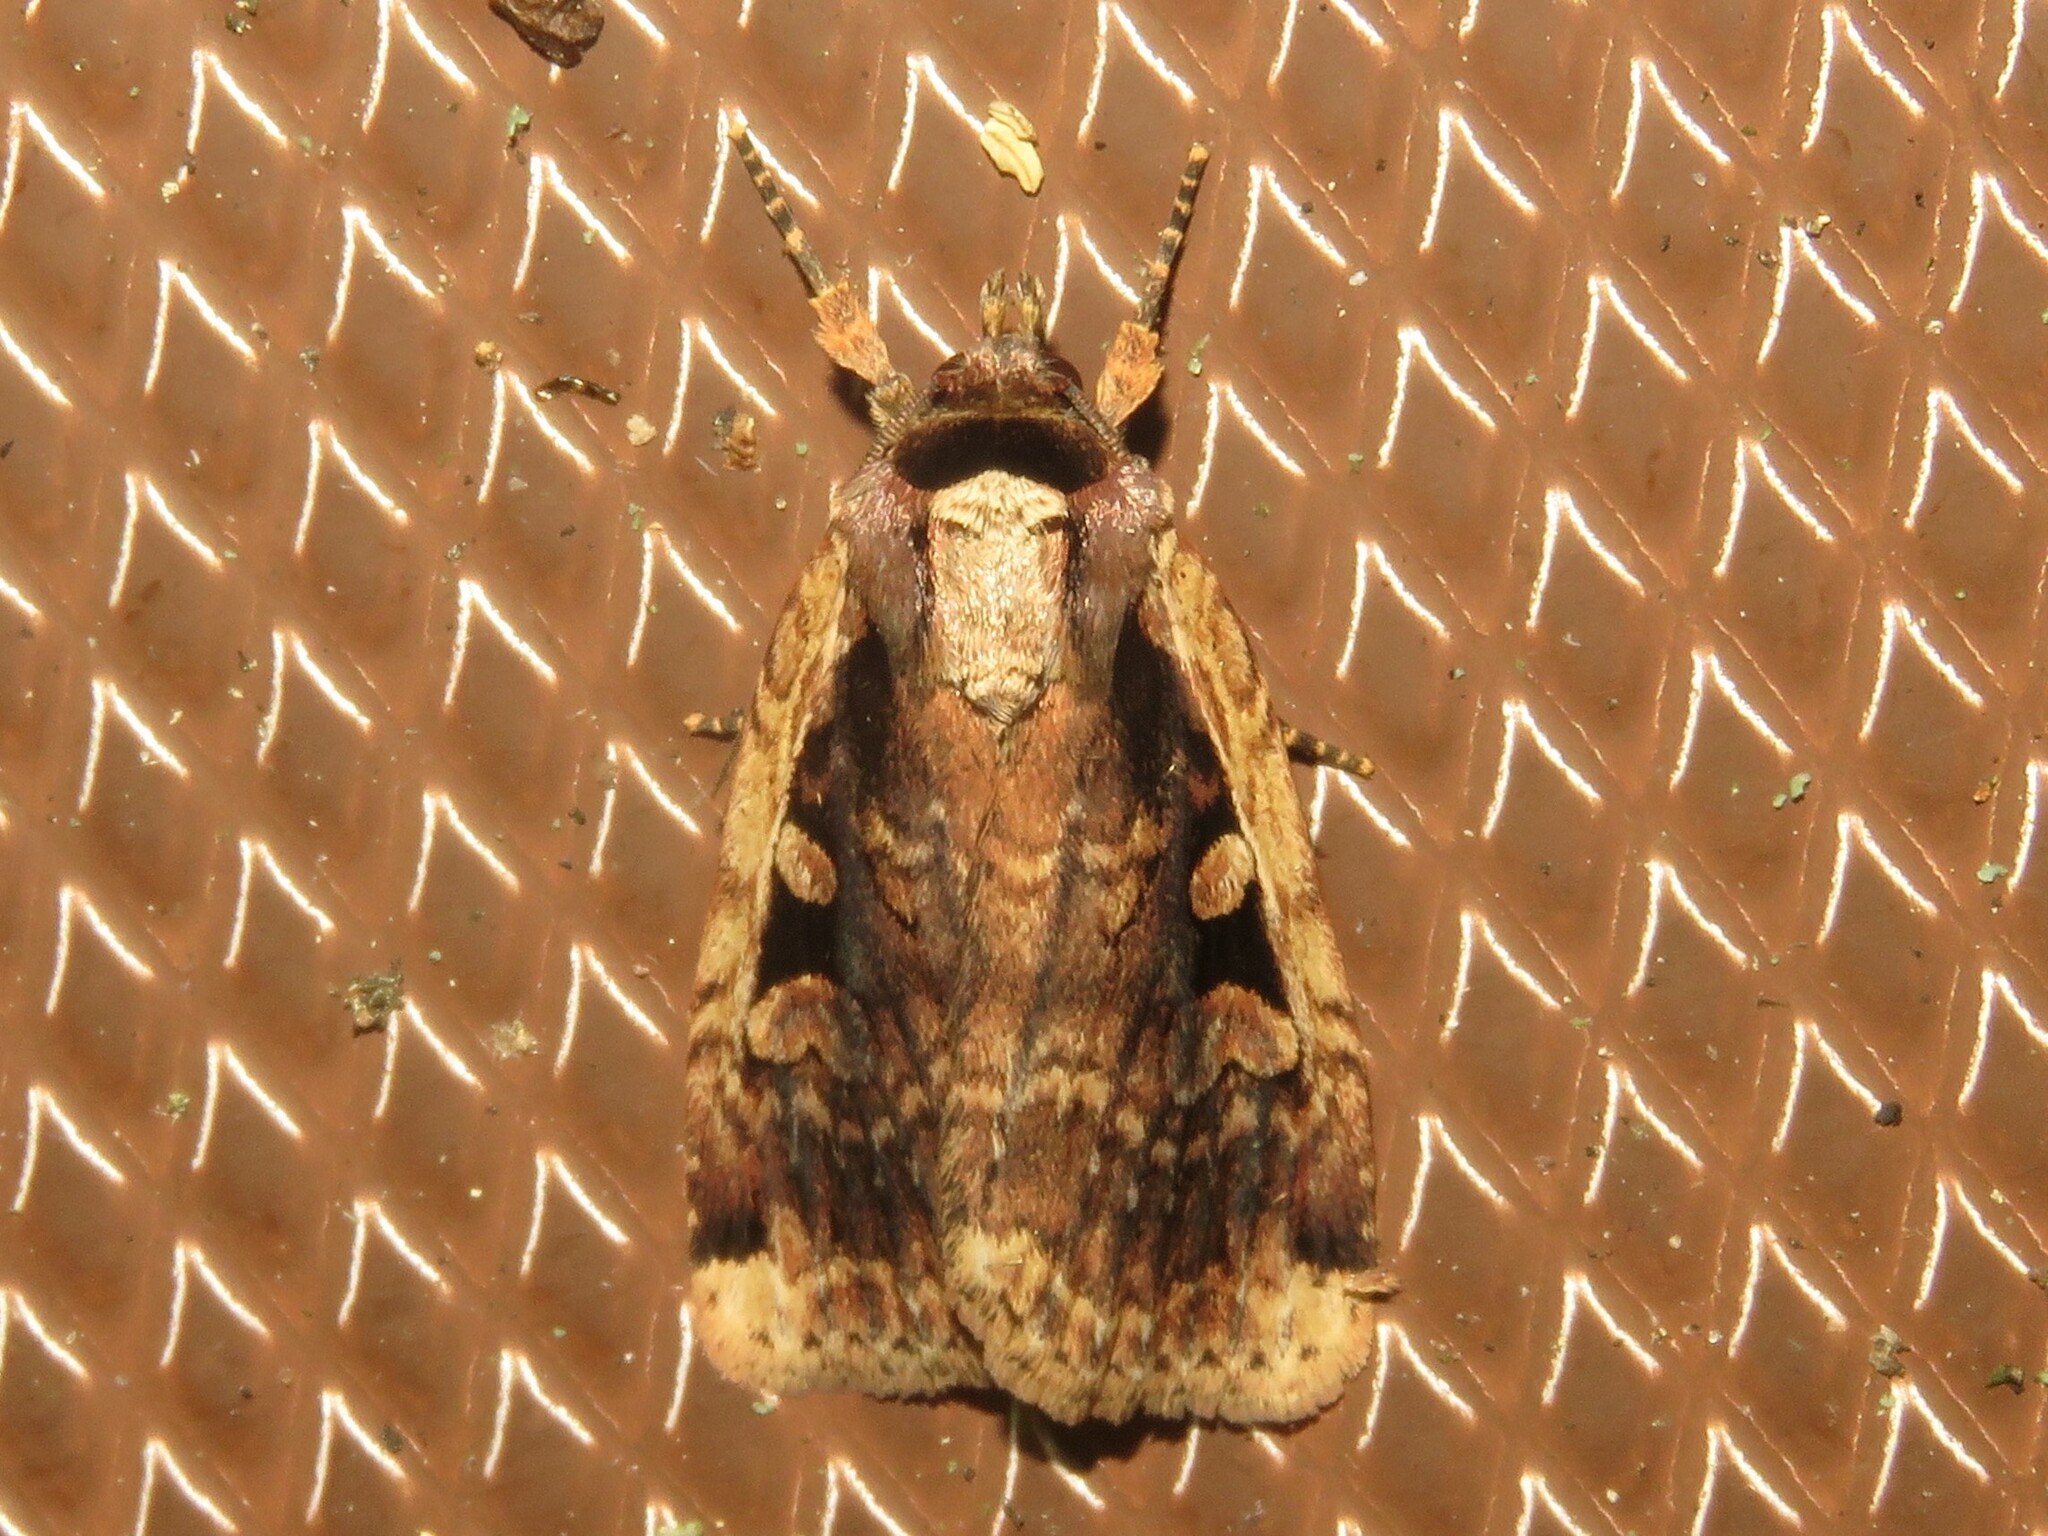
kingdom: Animalia
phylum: Arthropoda
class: Insecta
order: Lepidoptera
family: Noctuidae
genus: Eueretagrotis
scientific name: Eueretagrotis sigmoides
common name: Sigmoid dart
